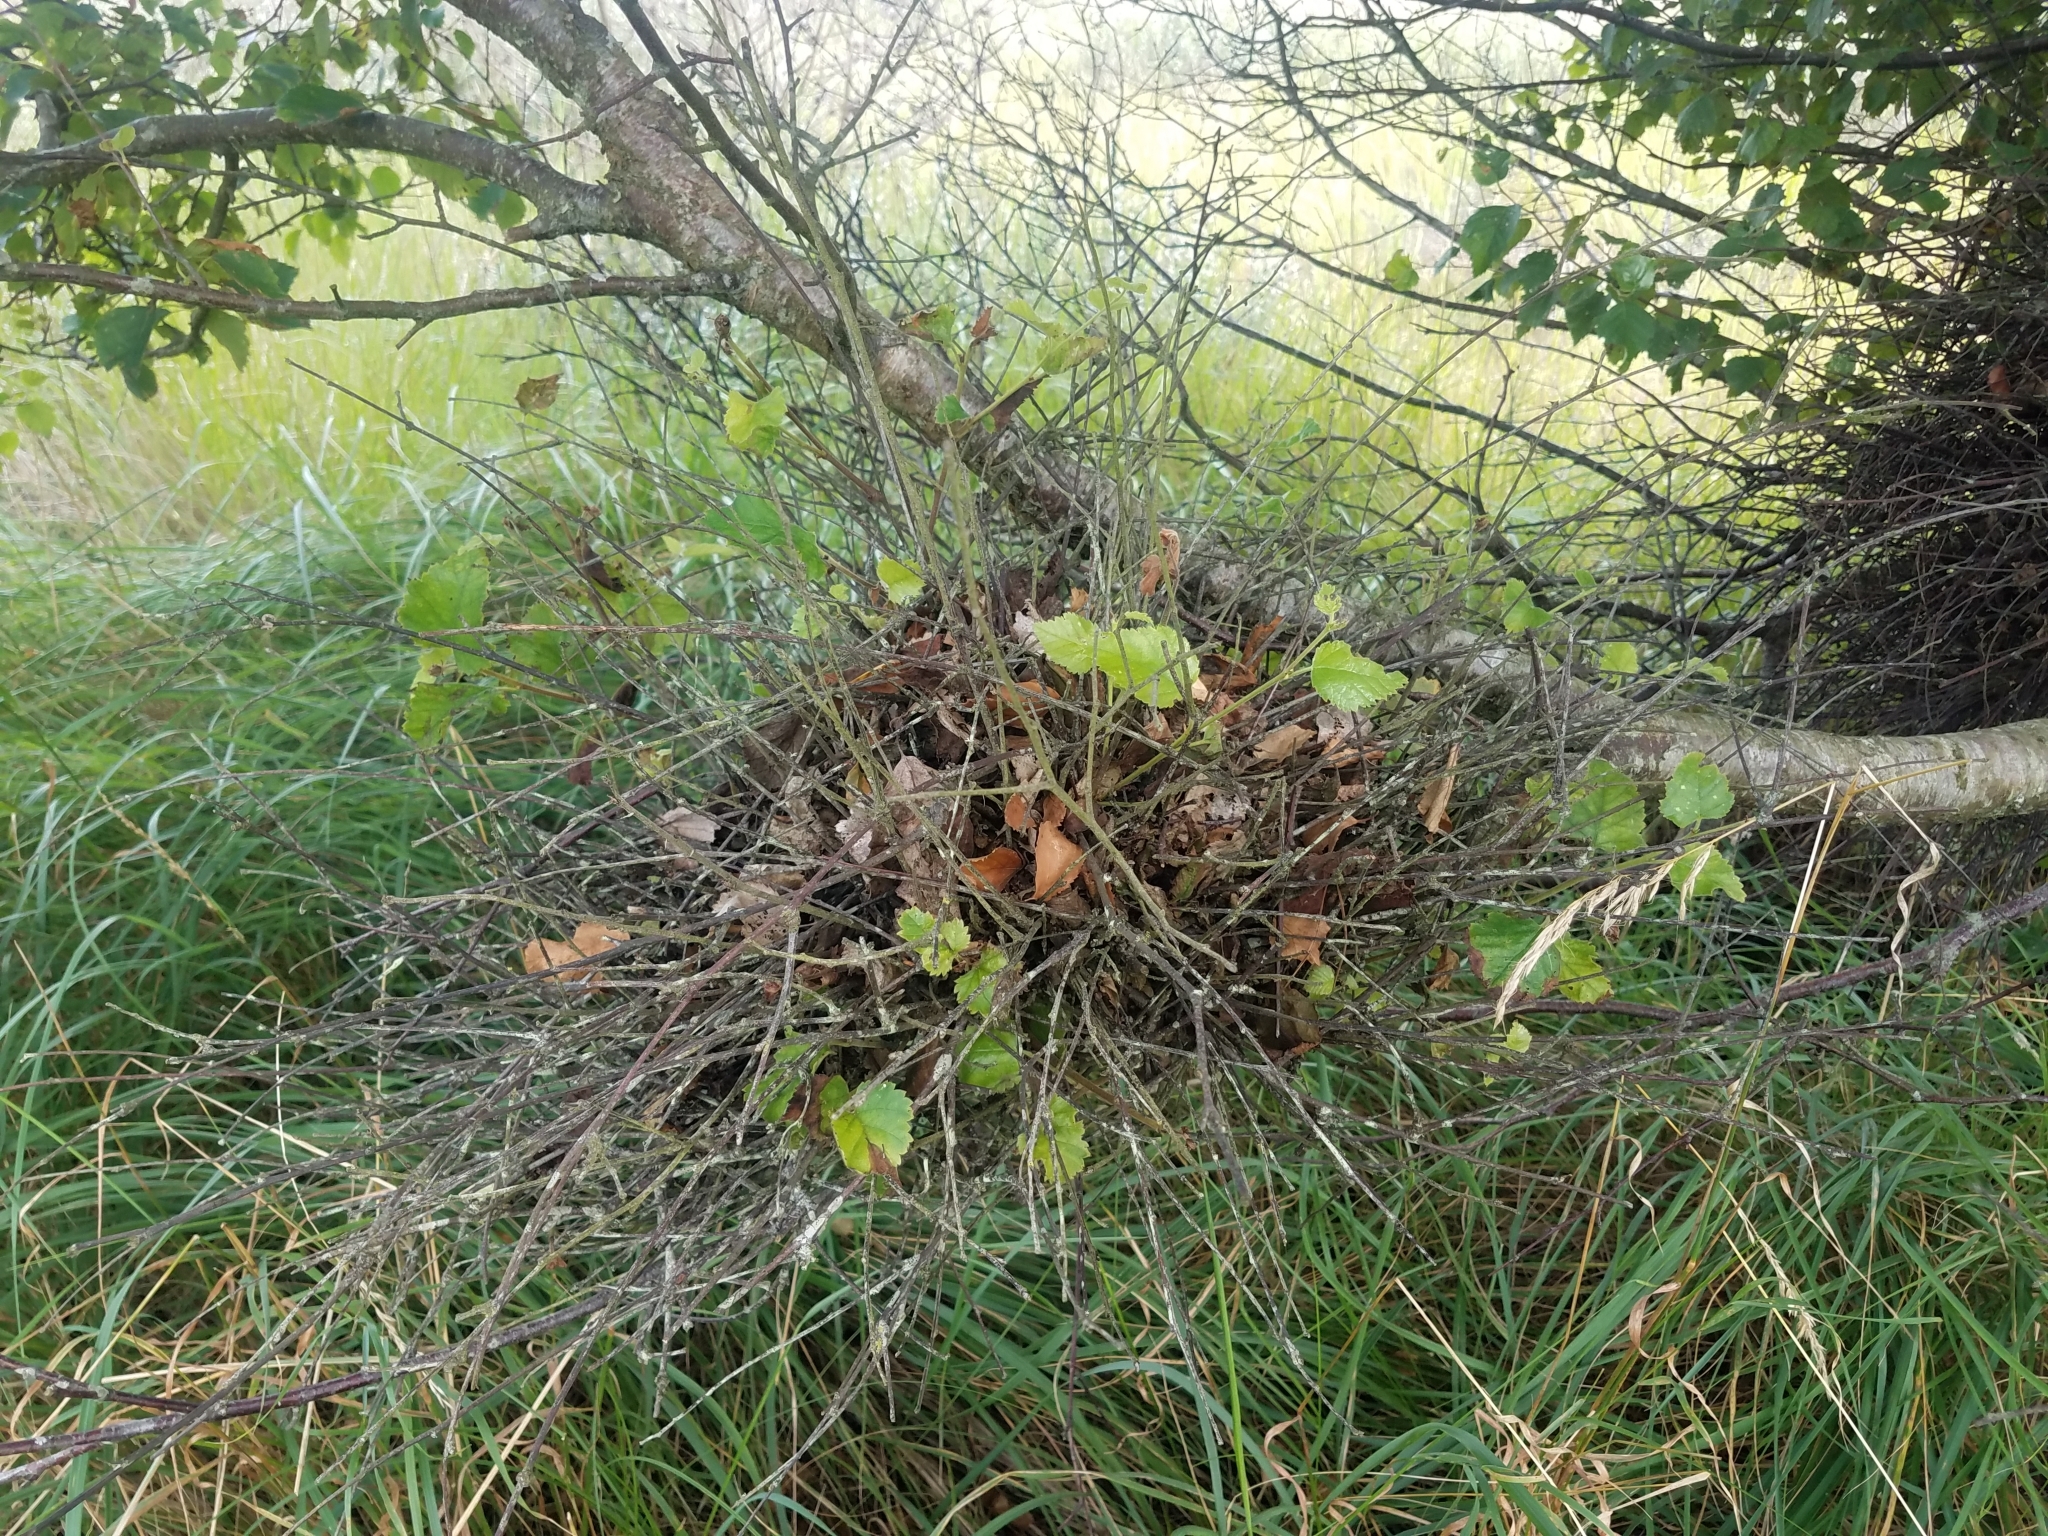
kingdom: Fungi
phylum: Ascomycota
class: Taphrinomycetes
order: Taphrinales
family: Taphrinaceae
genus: Taphrina
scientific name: Taphrina betulina
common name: Birch besom
